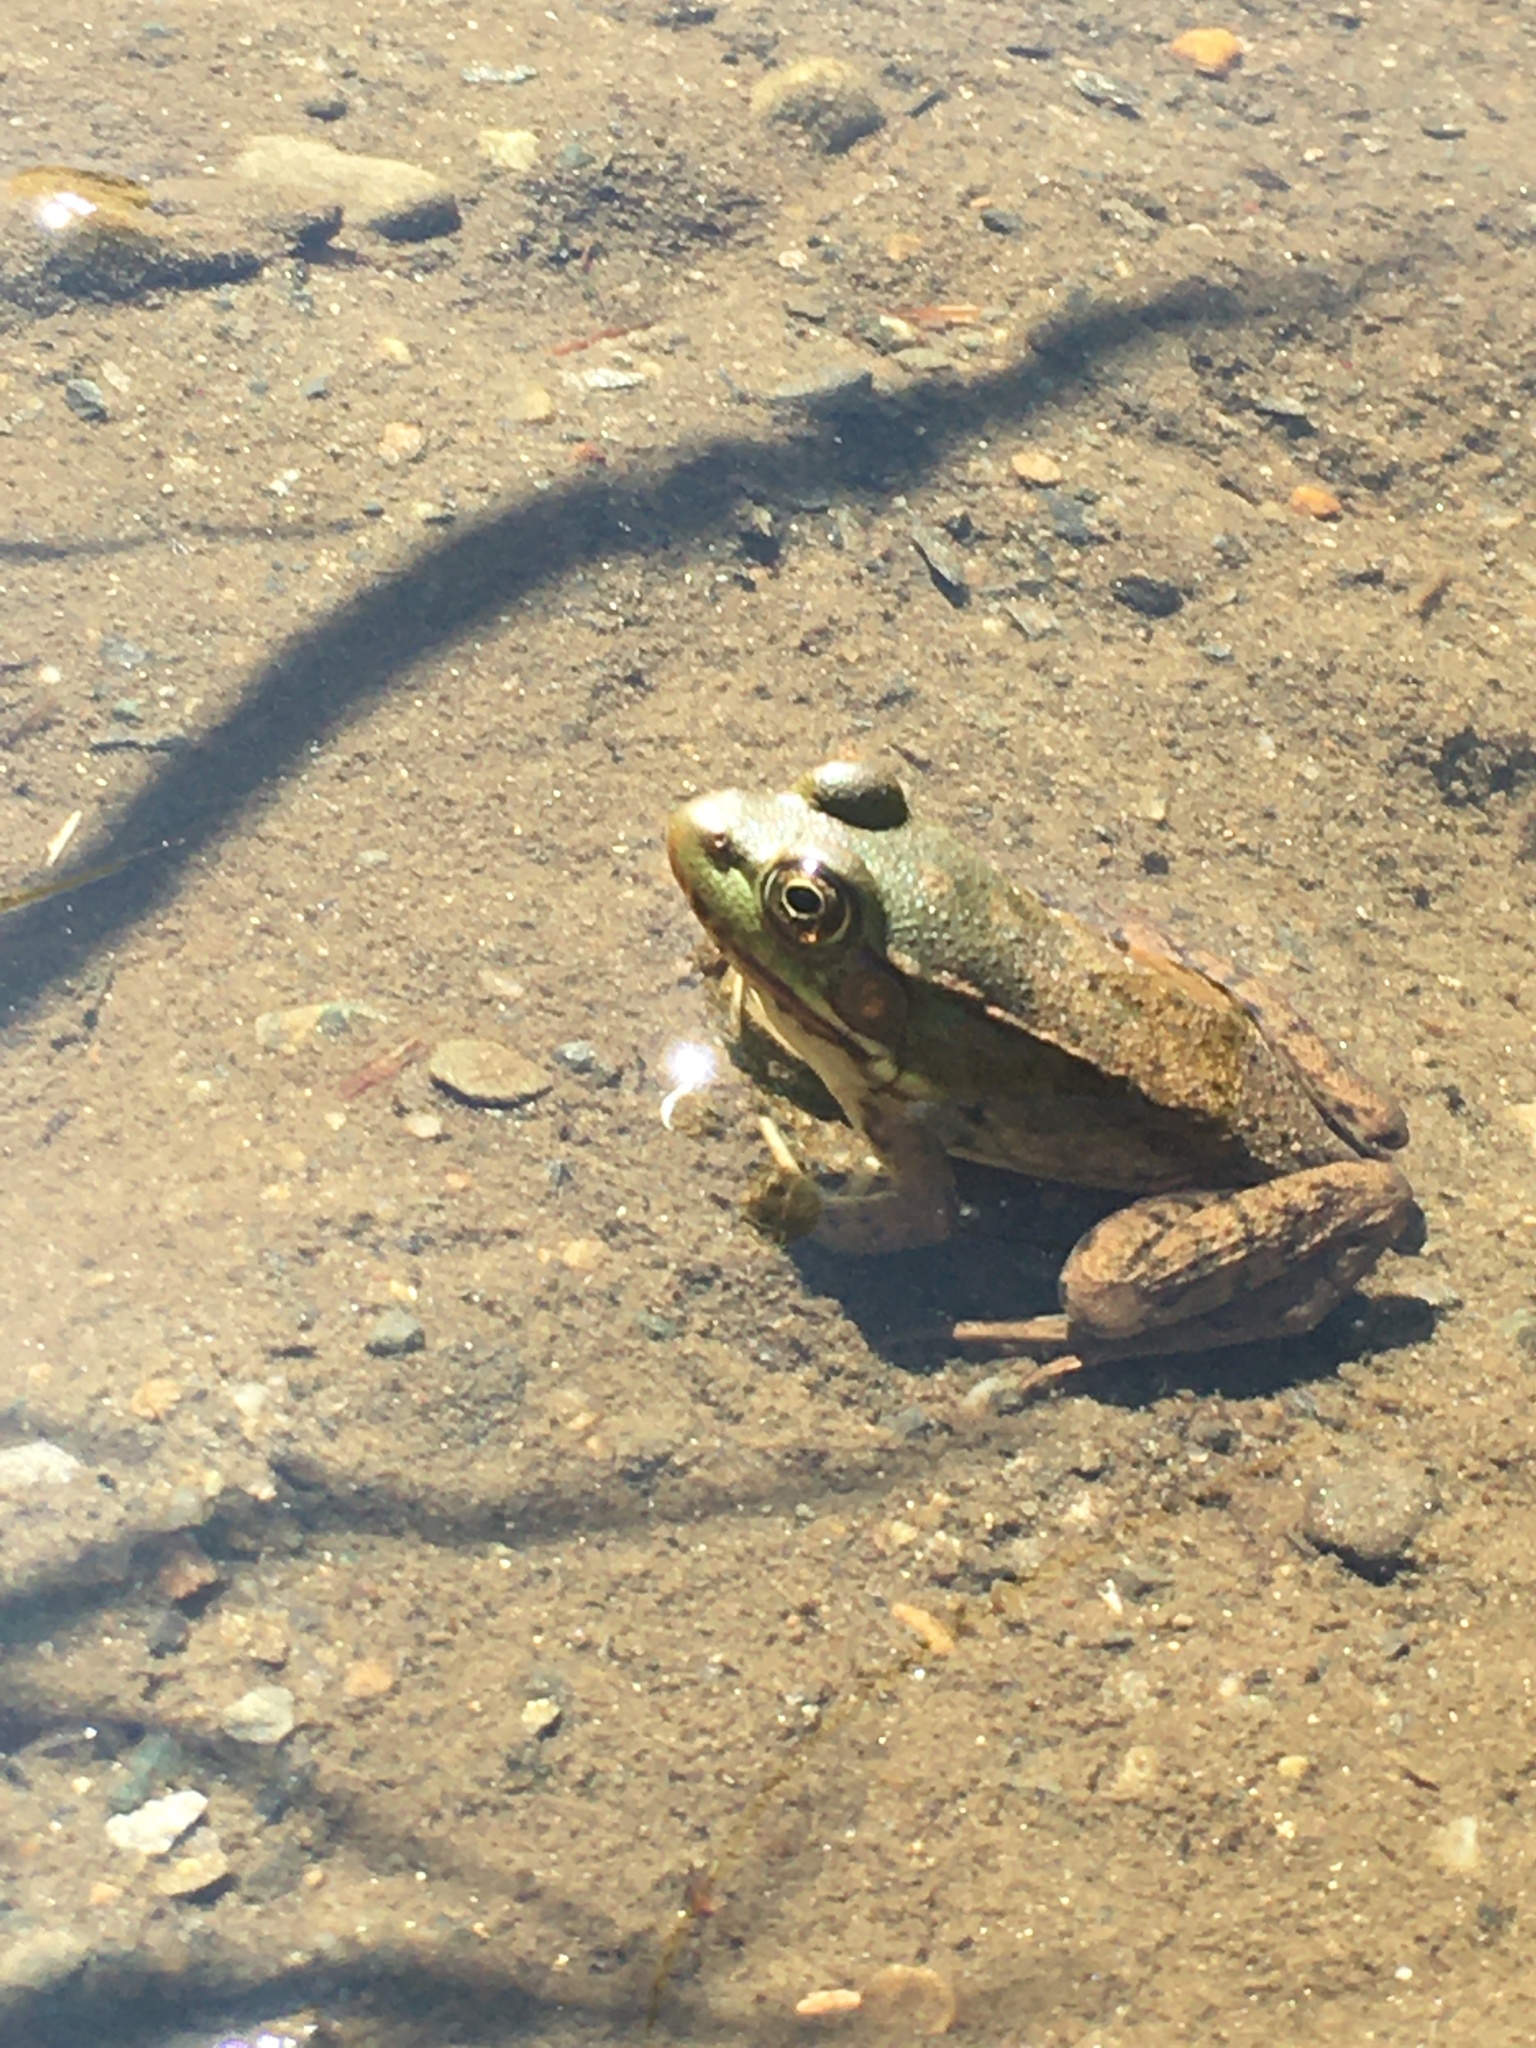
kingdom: Animalia
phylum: Chordata
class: Amphibia
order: Anura
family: Ranidae
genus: Lithobates
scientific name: Lithobates clamitans
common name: Green frog
